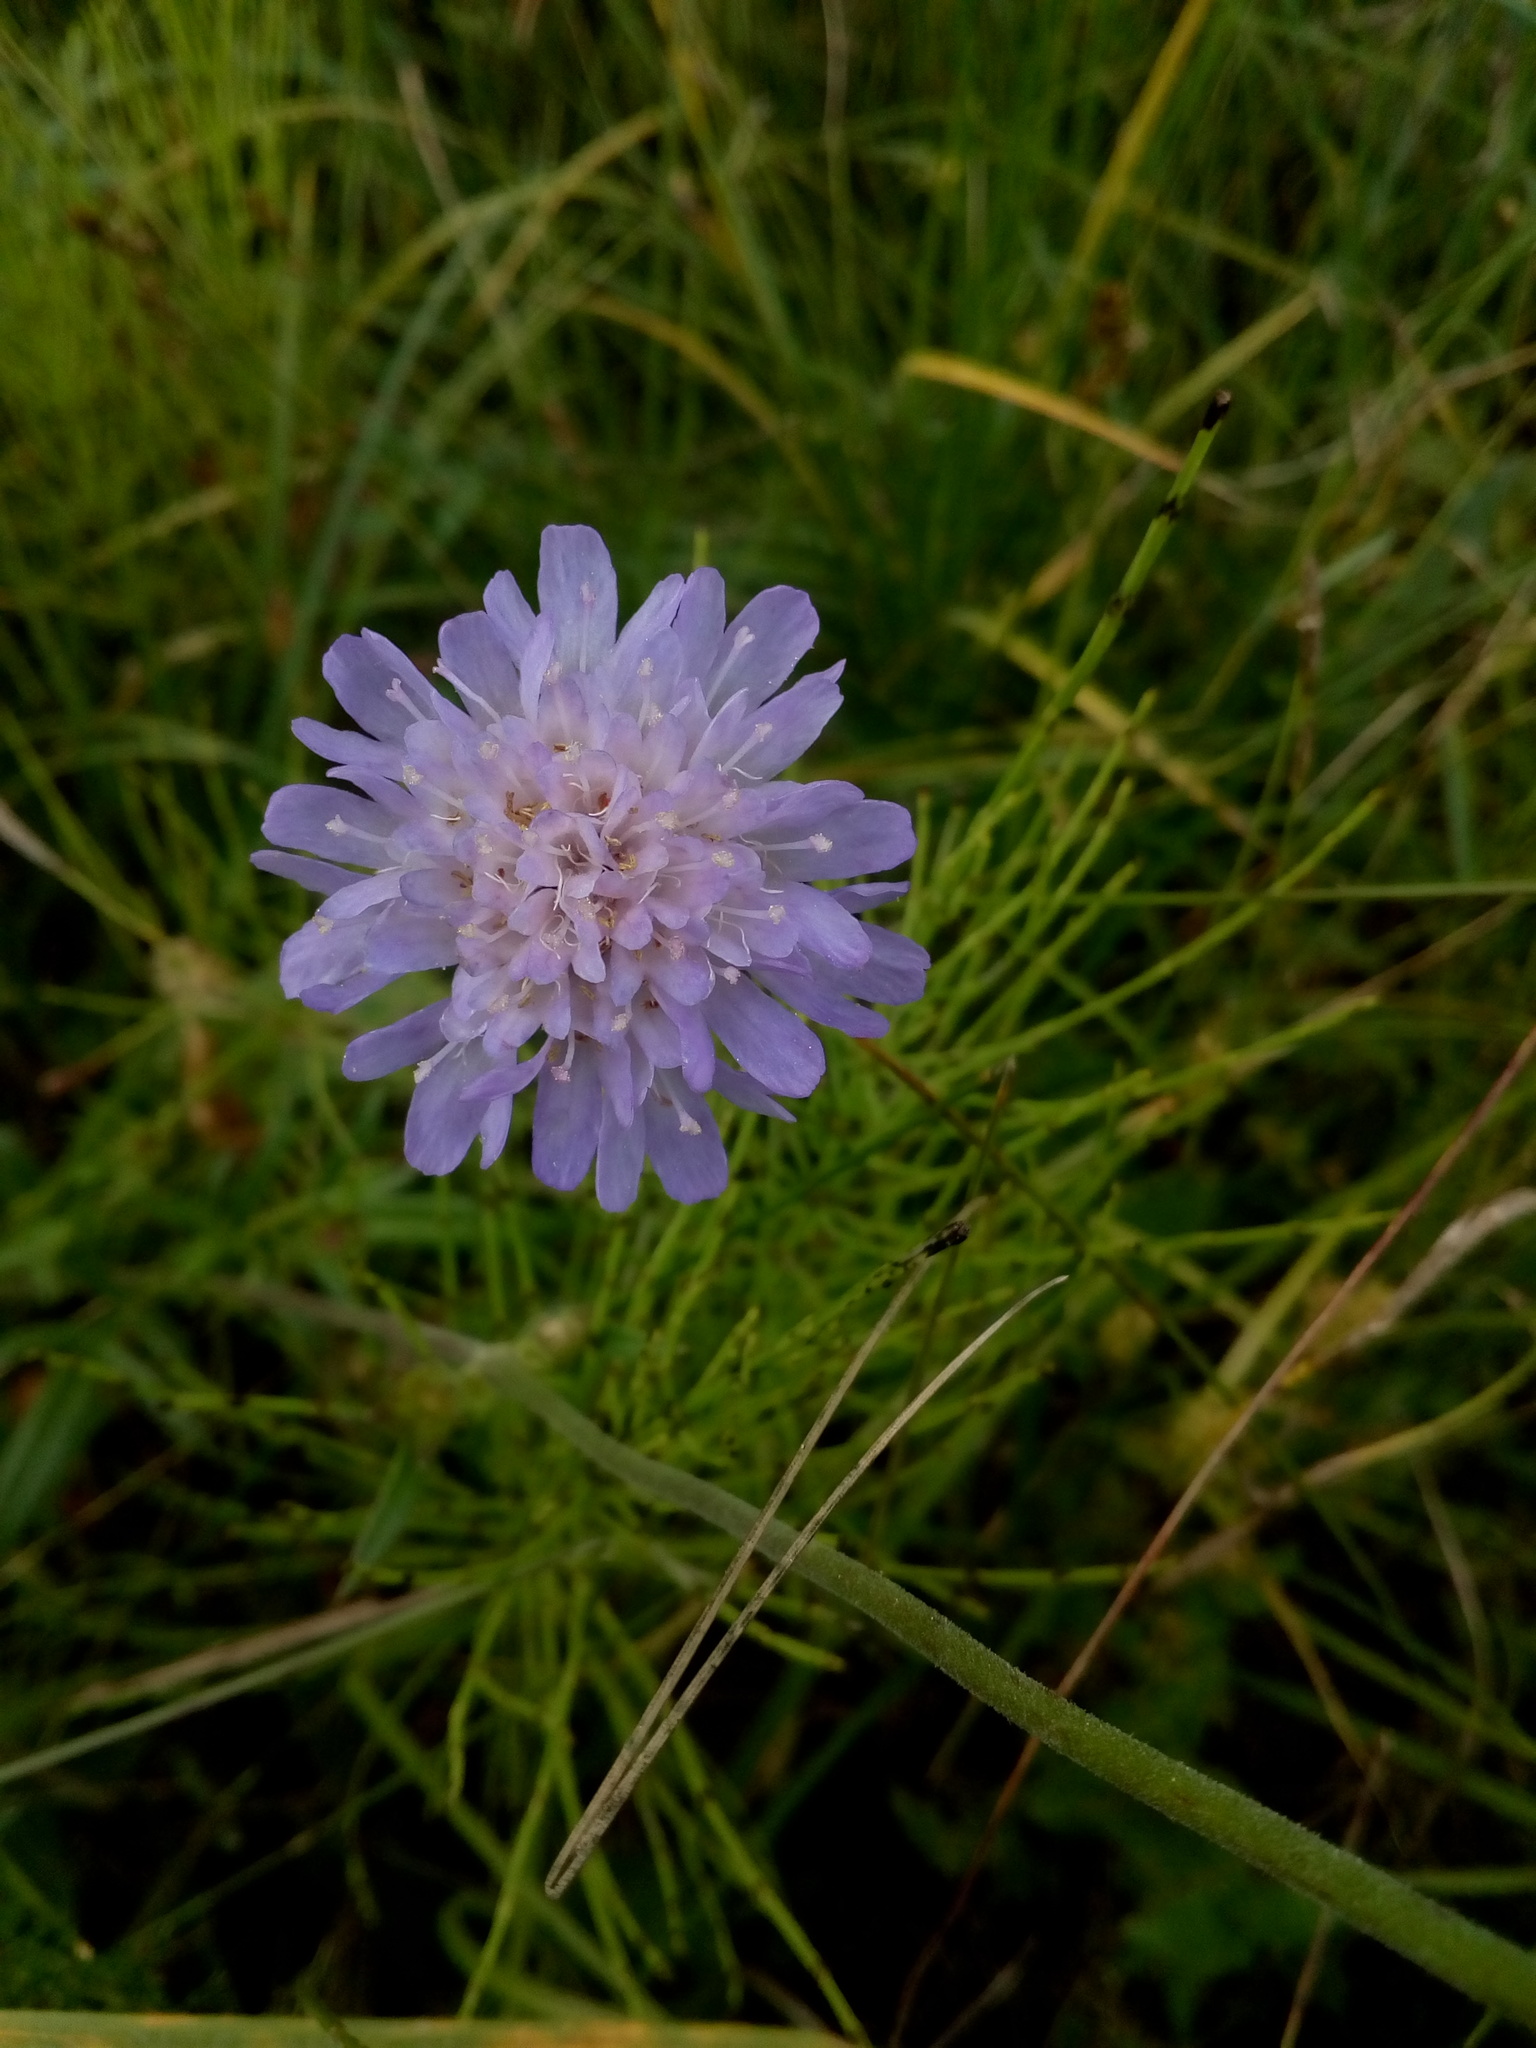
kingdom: Plantae
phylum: Tracheophyta
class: Magnoliopsida
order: Dipsacales
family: Caprifoliaceae
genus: Knautia
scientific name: Knautia arvensis
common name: Field scabiosa
